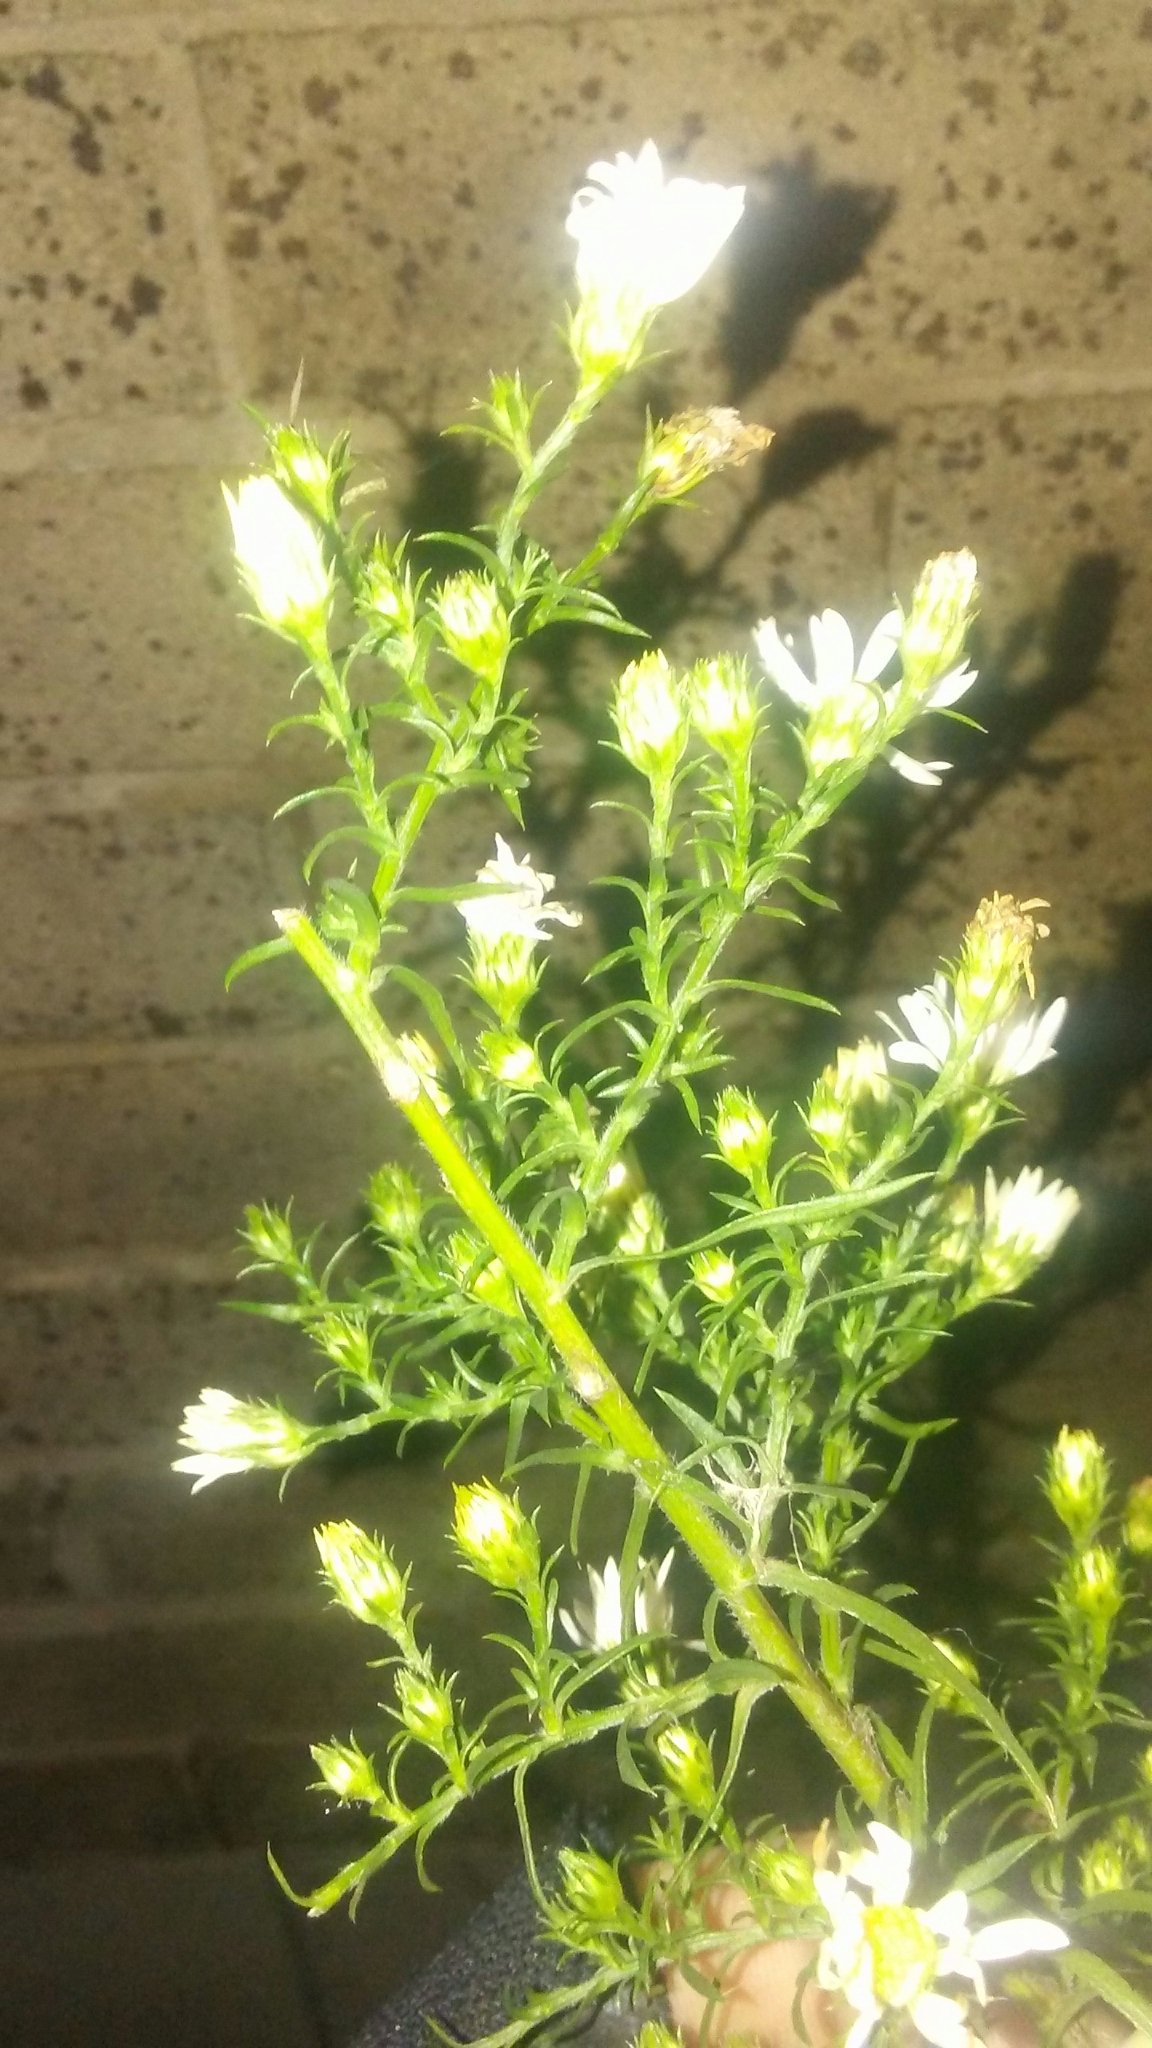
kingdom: Plantae
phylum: Tracheophyta
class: Magnoliopsida
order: Asterales
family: Asteraceae
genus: Symphyotrichum
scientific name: Symphyotrichum pilosum
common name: Awl aster
